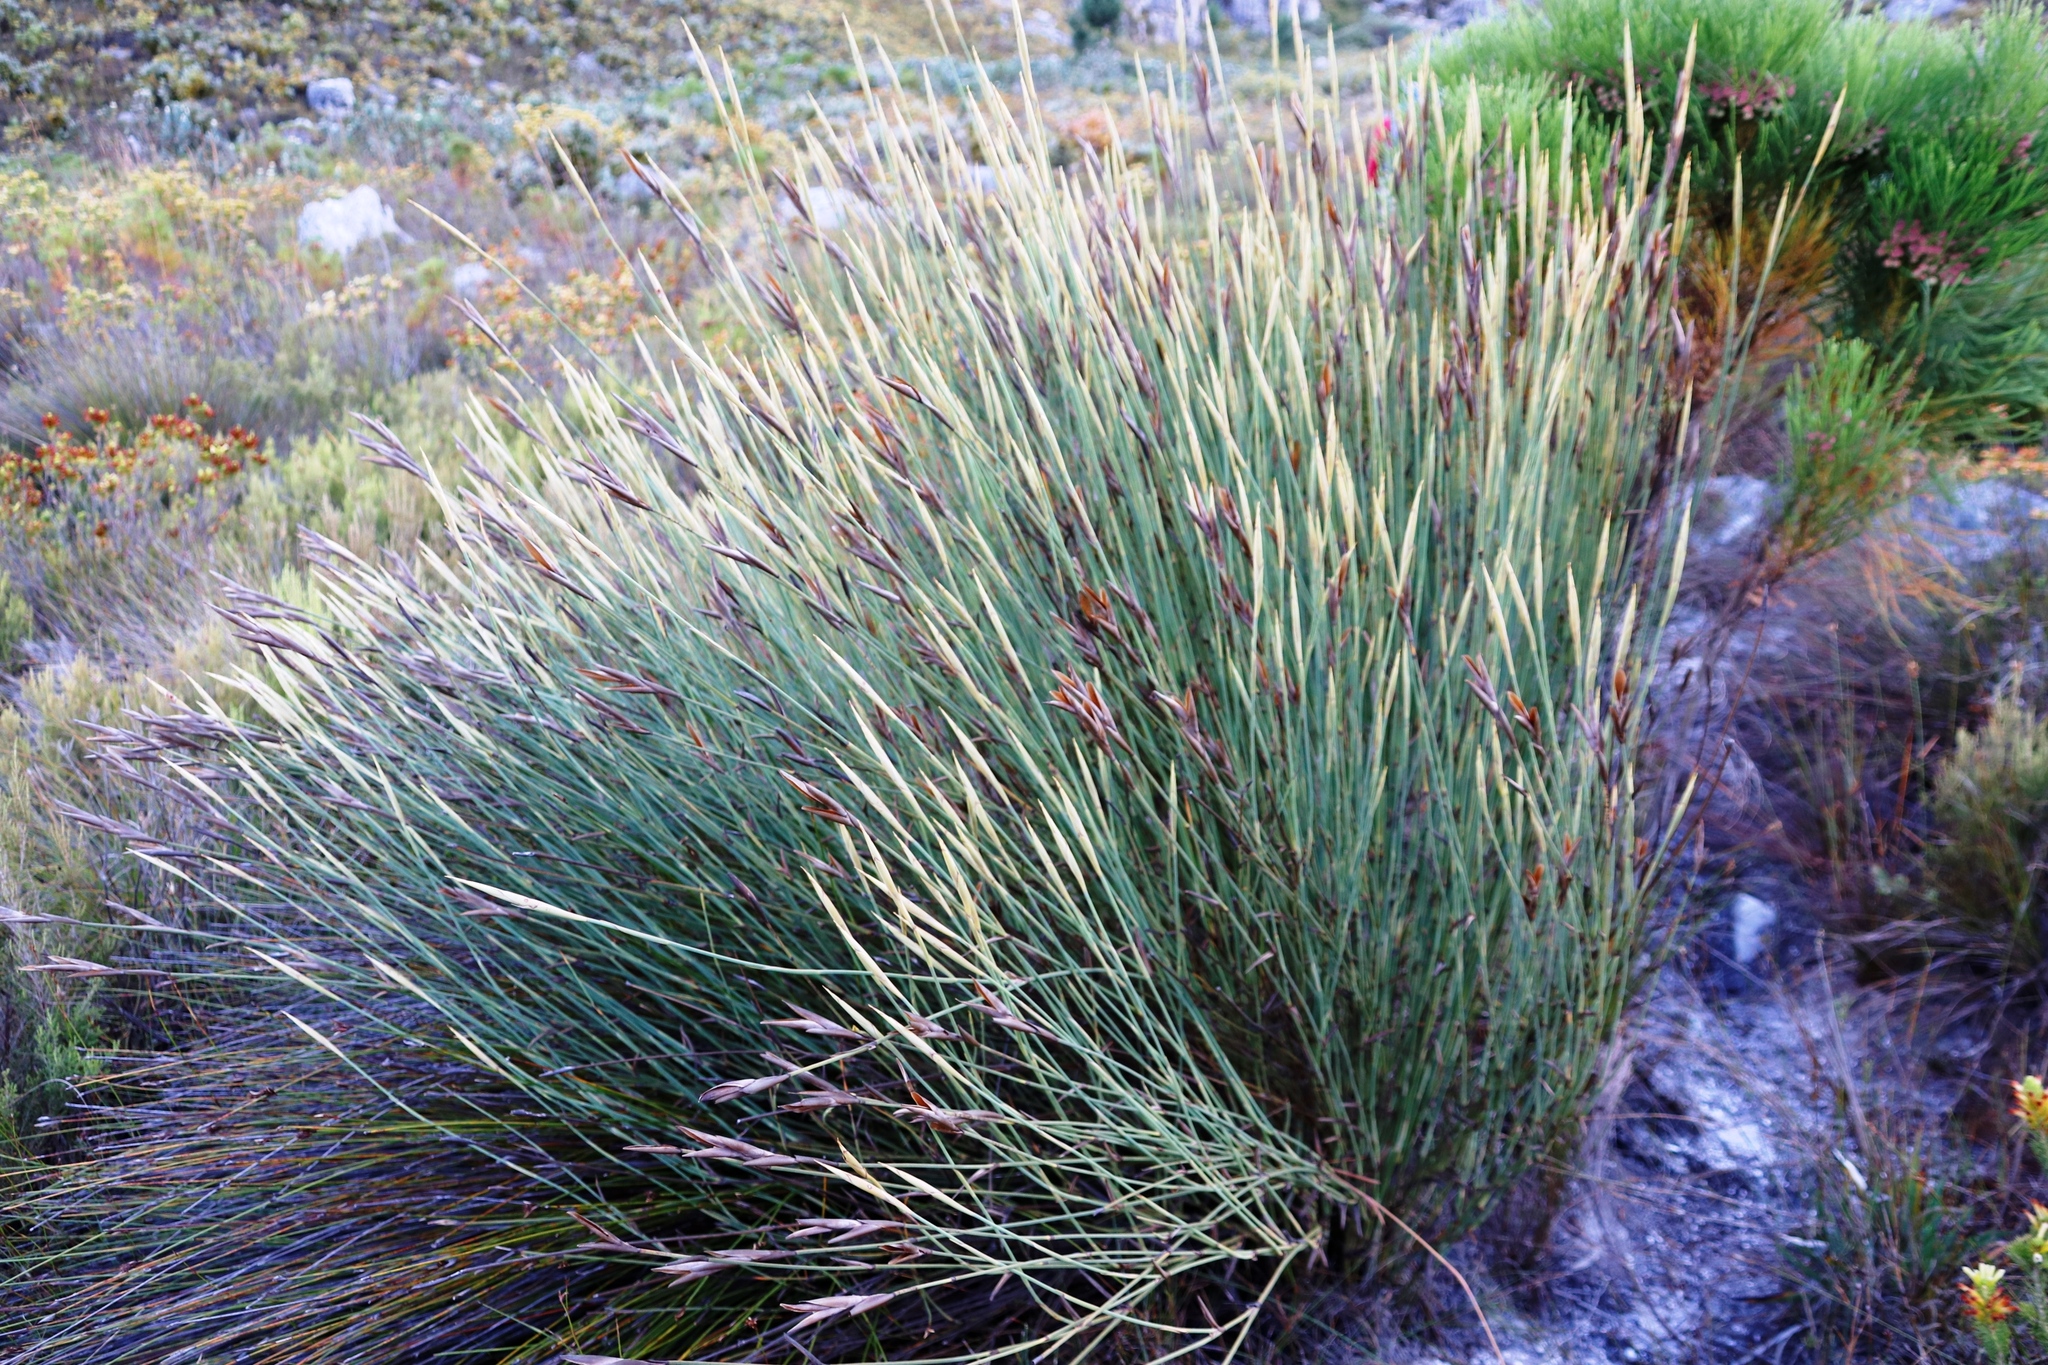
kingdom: Plantae
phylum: Tracheophyta
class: Liliopsida
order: Poales
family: Restionaceae
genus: Elegia
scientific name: Elegia grandis
